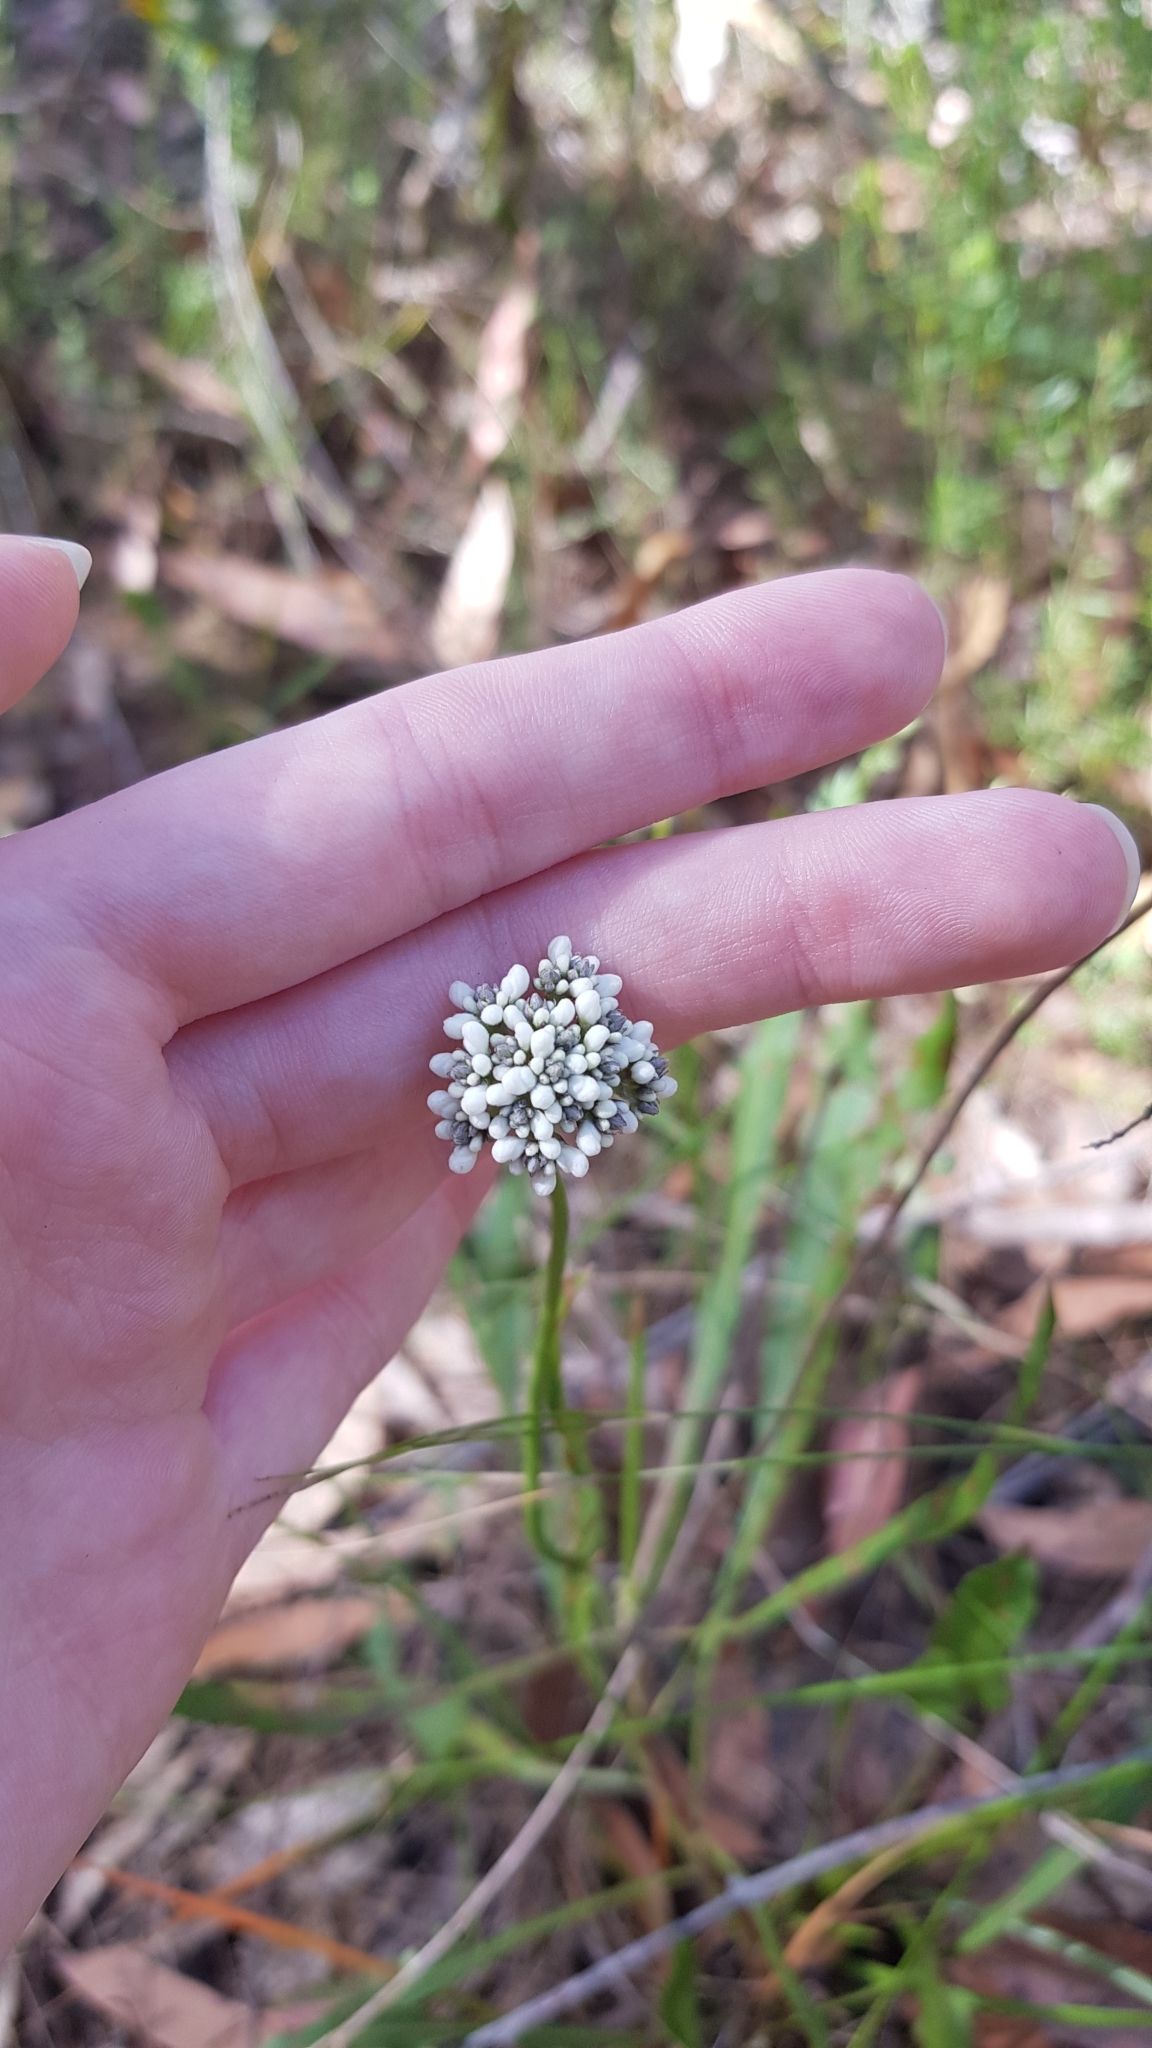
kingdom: Plantae
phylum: Tracheophyta
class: Magnoliopsida
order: Proteales
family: Proteaceae
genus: Conospermum
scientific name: Conospermum longifolium
